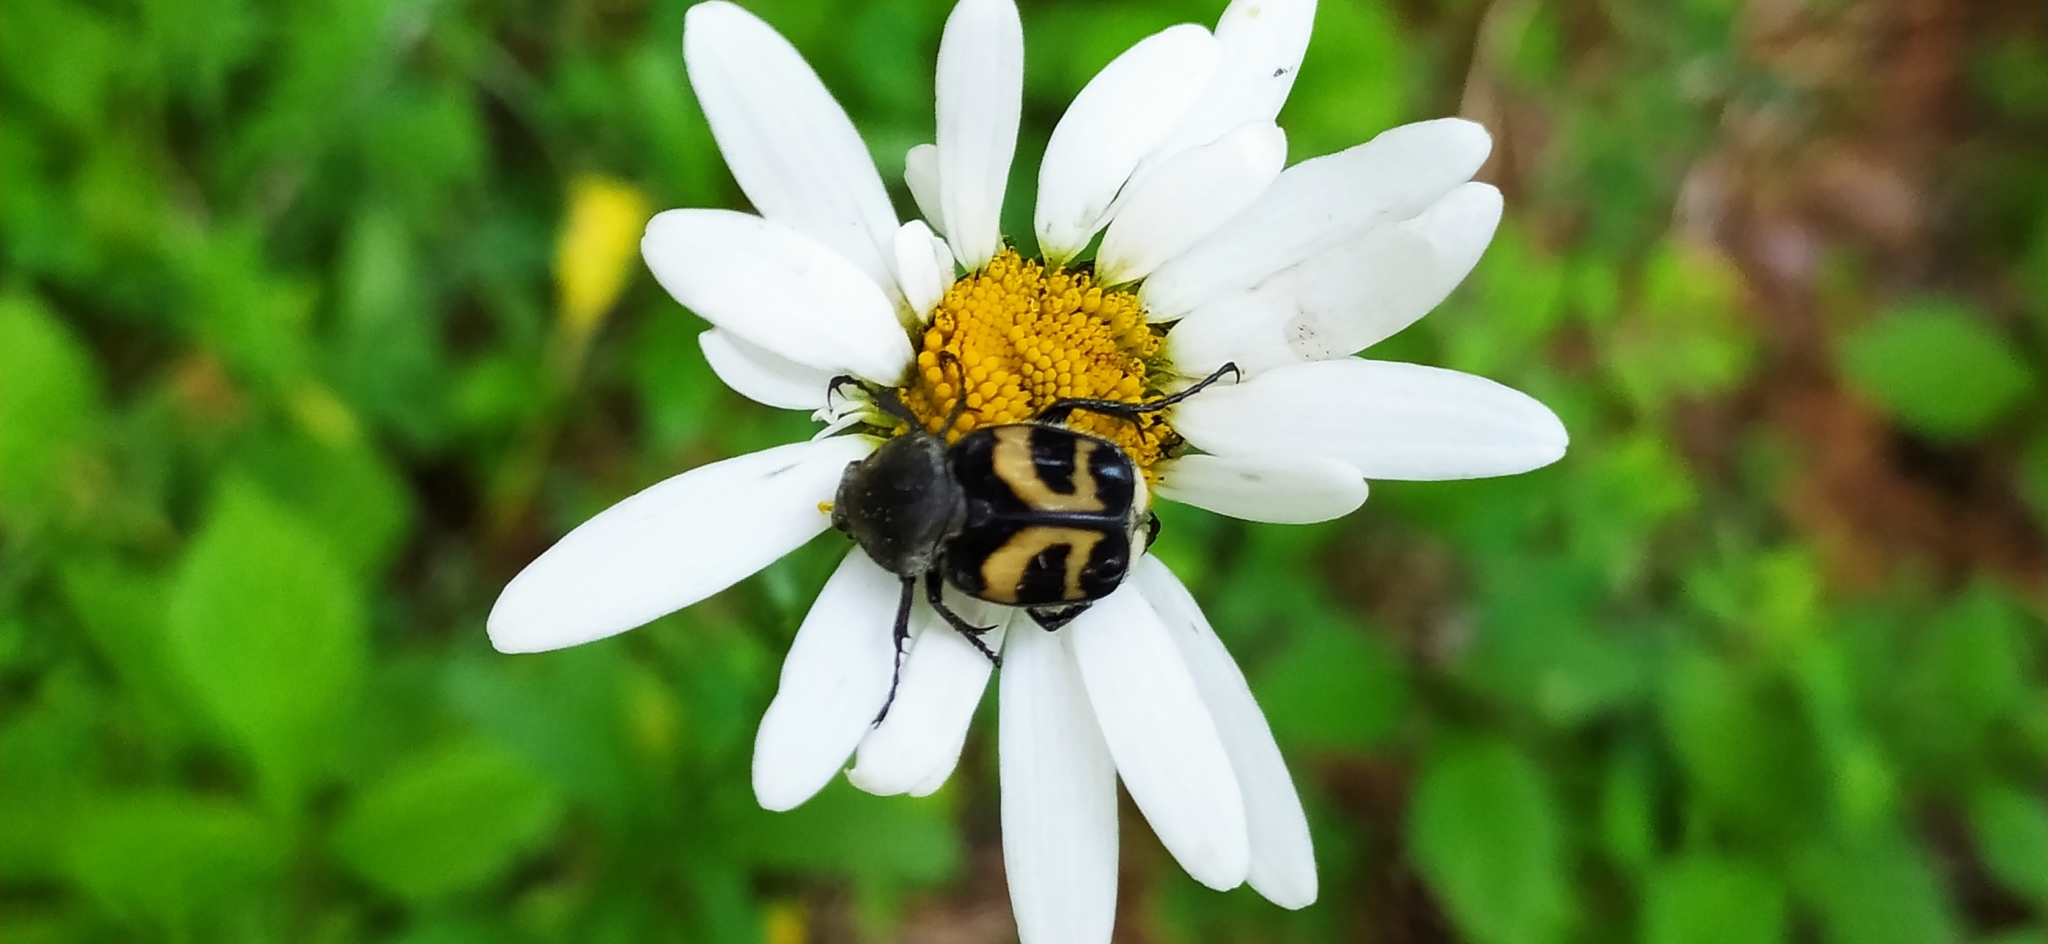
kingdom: Animalia
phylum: Arthropoda
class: Insecta
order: Coleoptera
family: Scarabaeidae
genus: Trichius
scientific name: Trichius fasciatus
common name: Bee beetle
